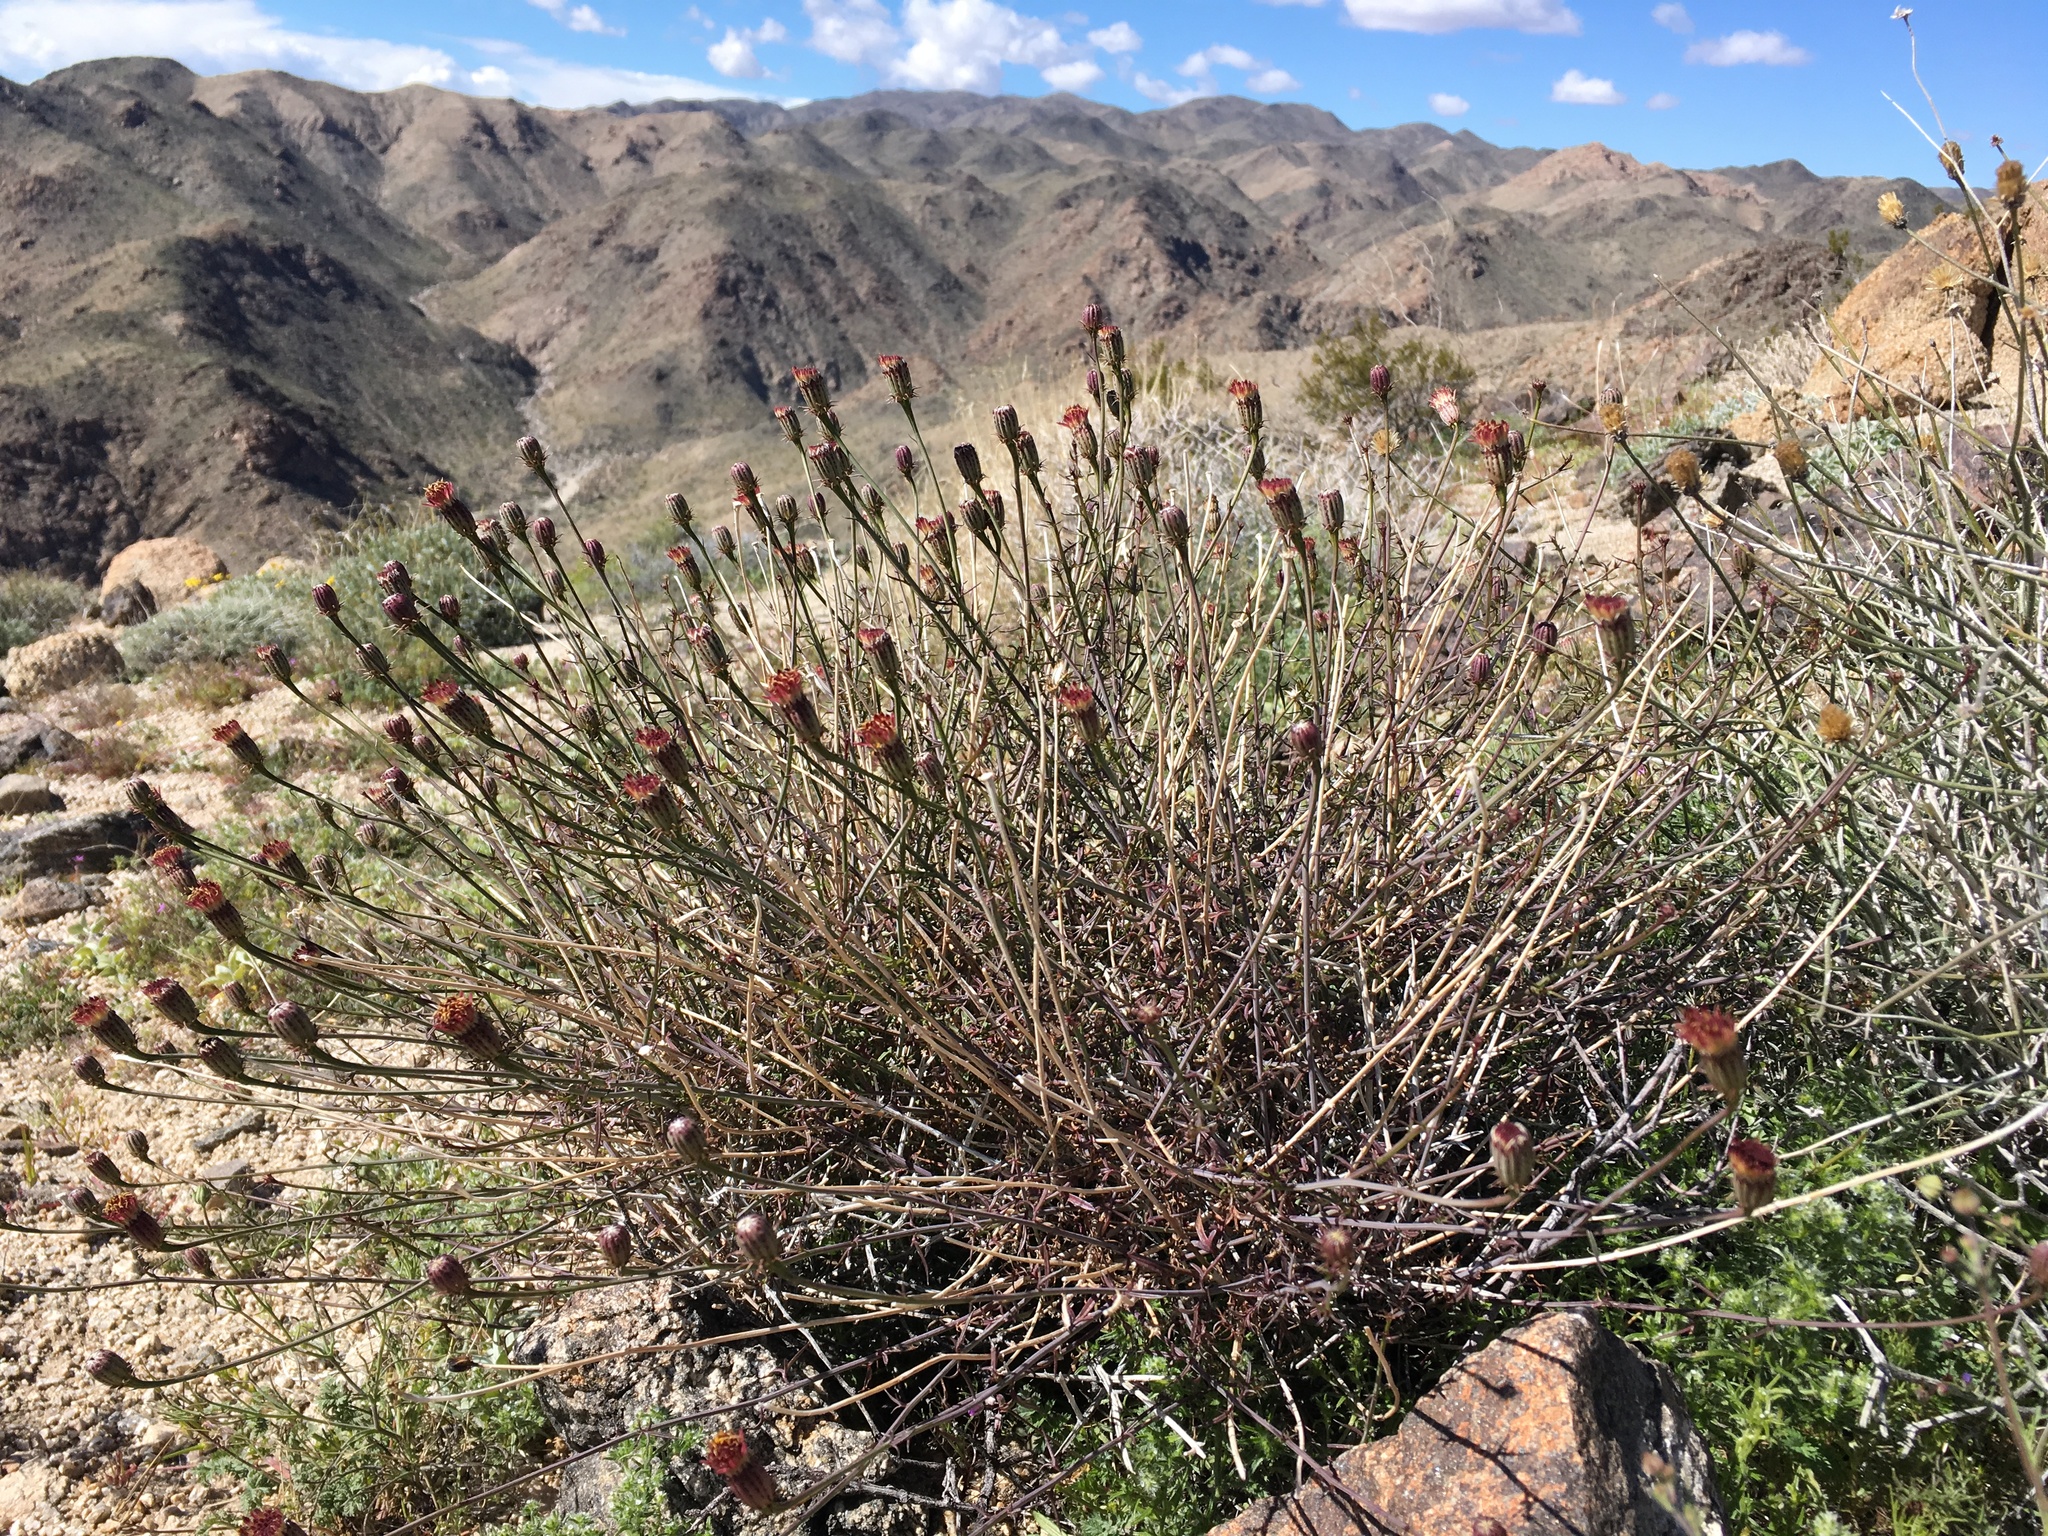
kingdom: Plantae
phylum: Tracheophyta
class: Magnoliopsida
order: Asterales
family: Asteraceae
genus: Adenophyllum
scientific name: Adenophyllum porophylloides
